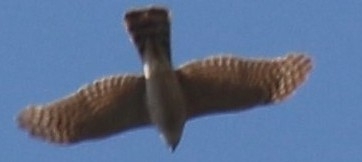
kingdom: Animalia
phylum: Chordata
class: Aves
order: Accipitriformes
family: Accipitridae
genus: Accipiter
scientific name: Accipiter nisus
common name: Eurasian sparrowhawk
